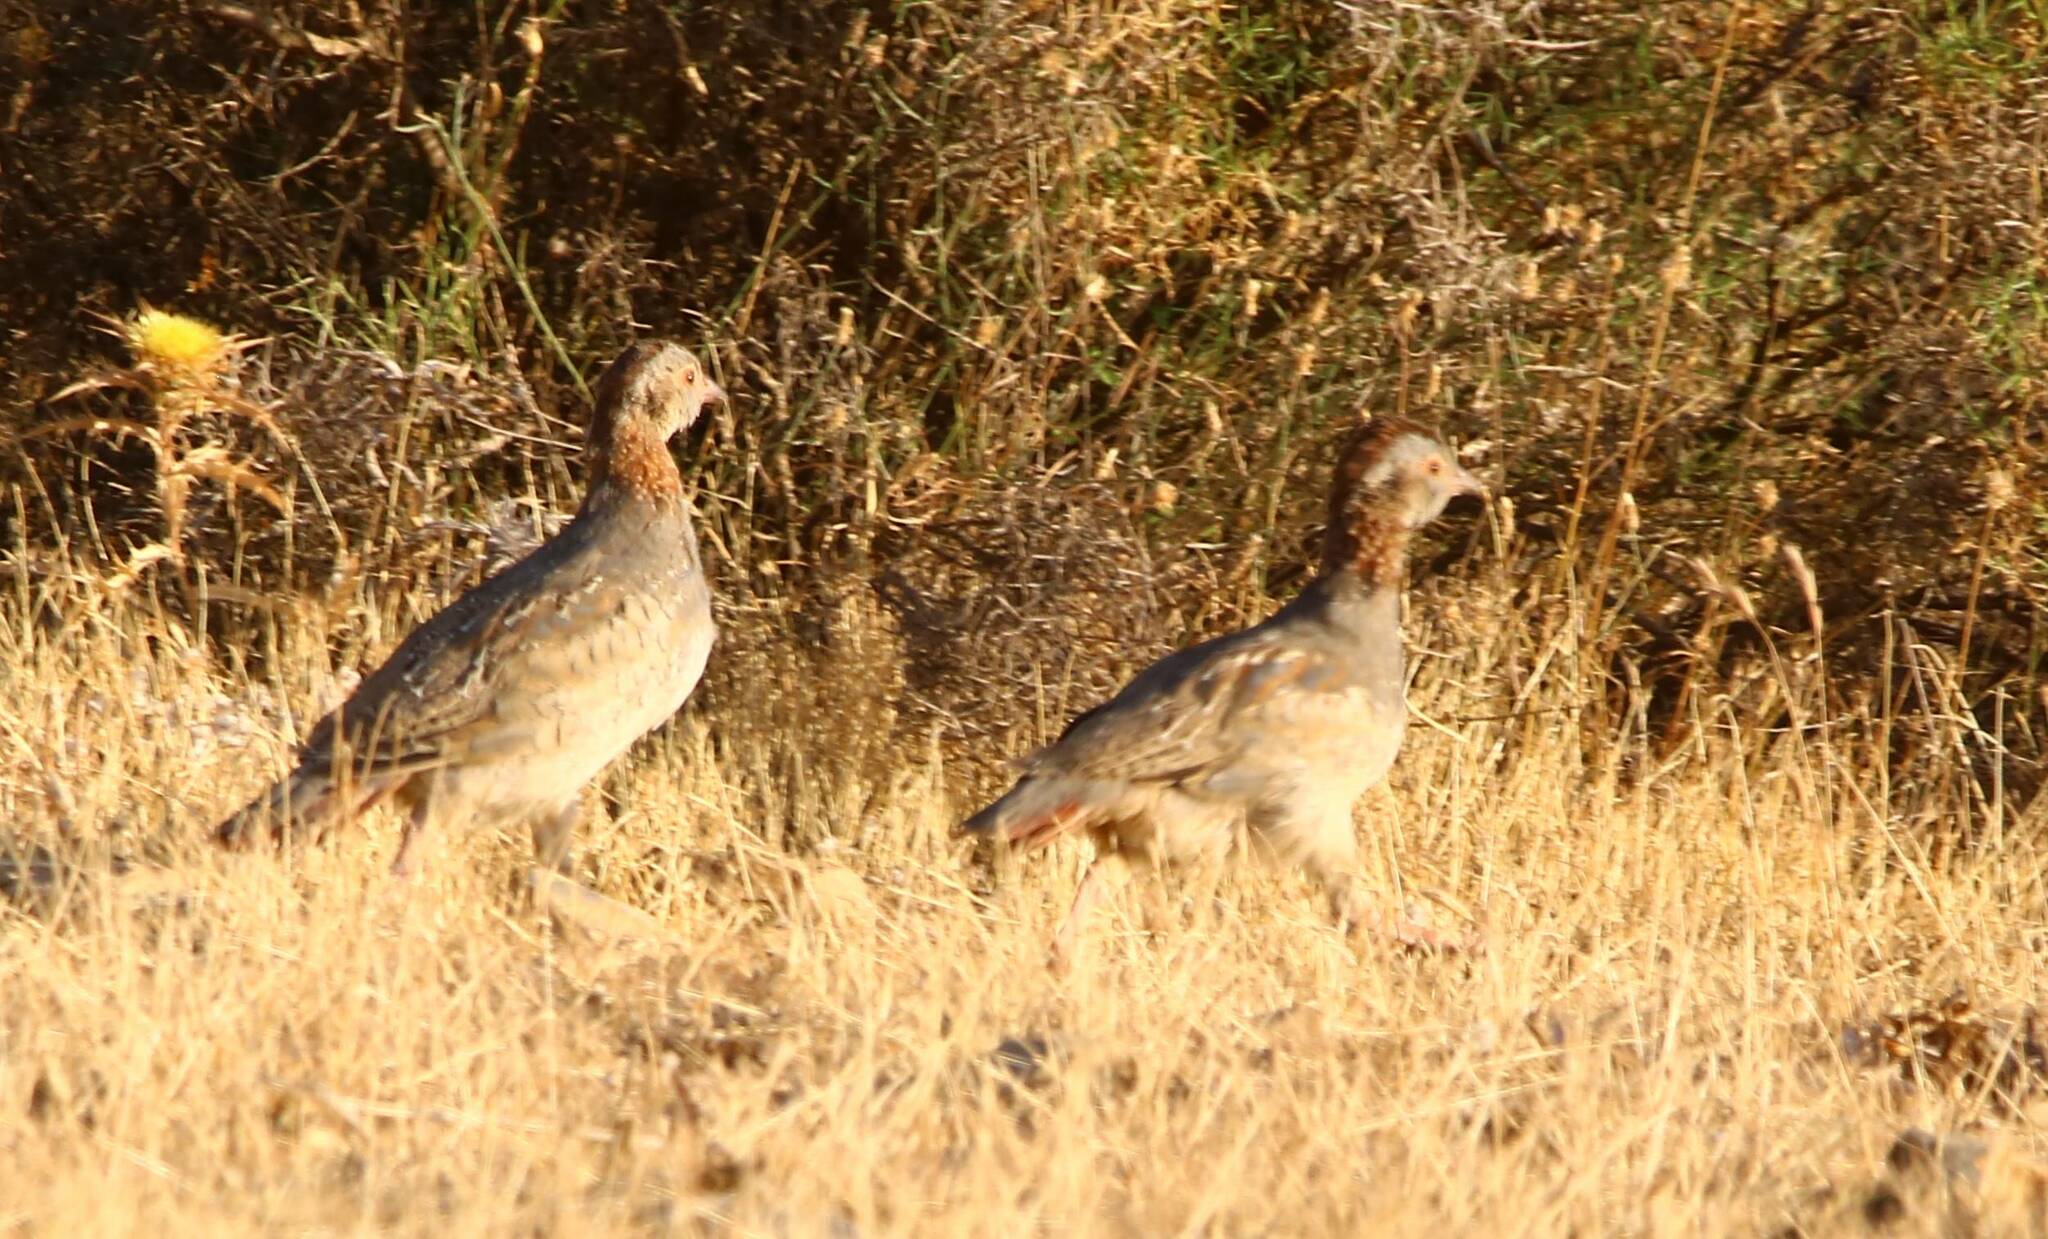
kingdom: Animalia
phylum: Chordata
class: Aves
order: Galliformes
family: Phasianidae
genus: Alectoris
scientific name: Alectoris barbara
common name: Barbary partridge
